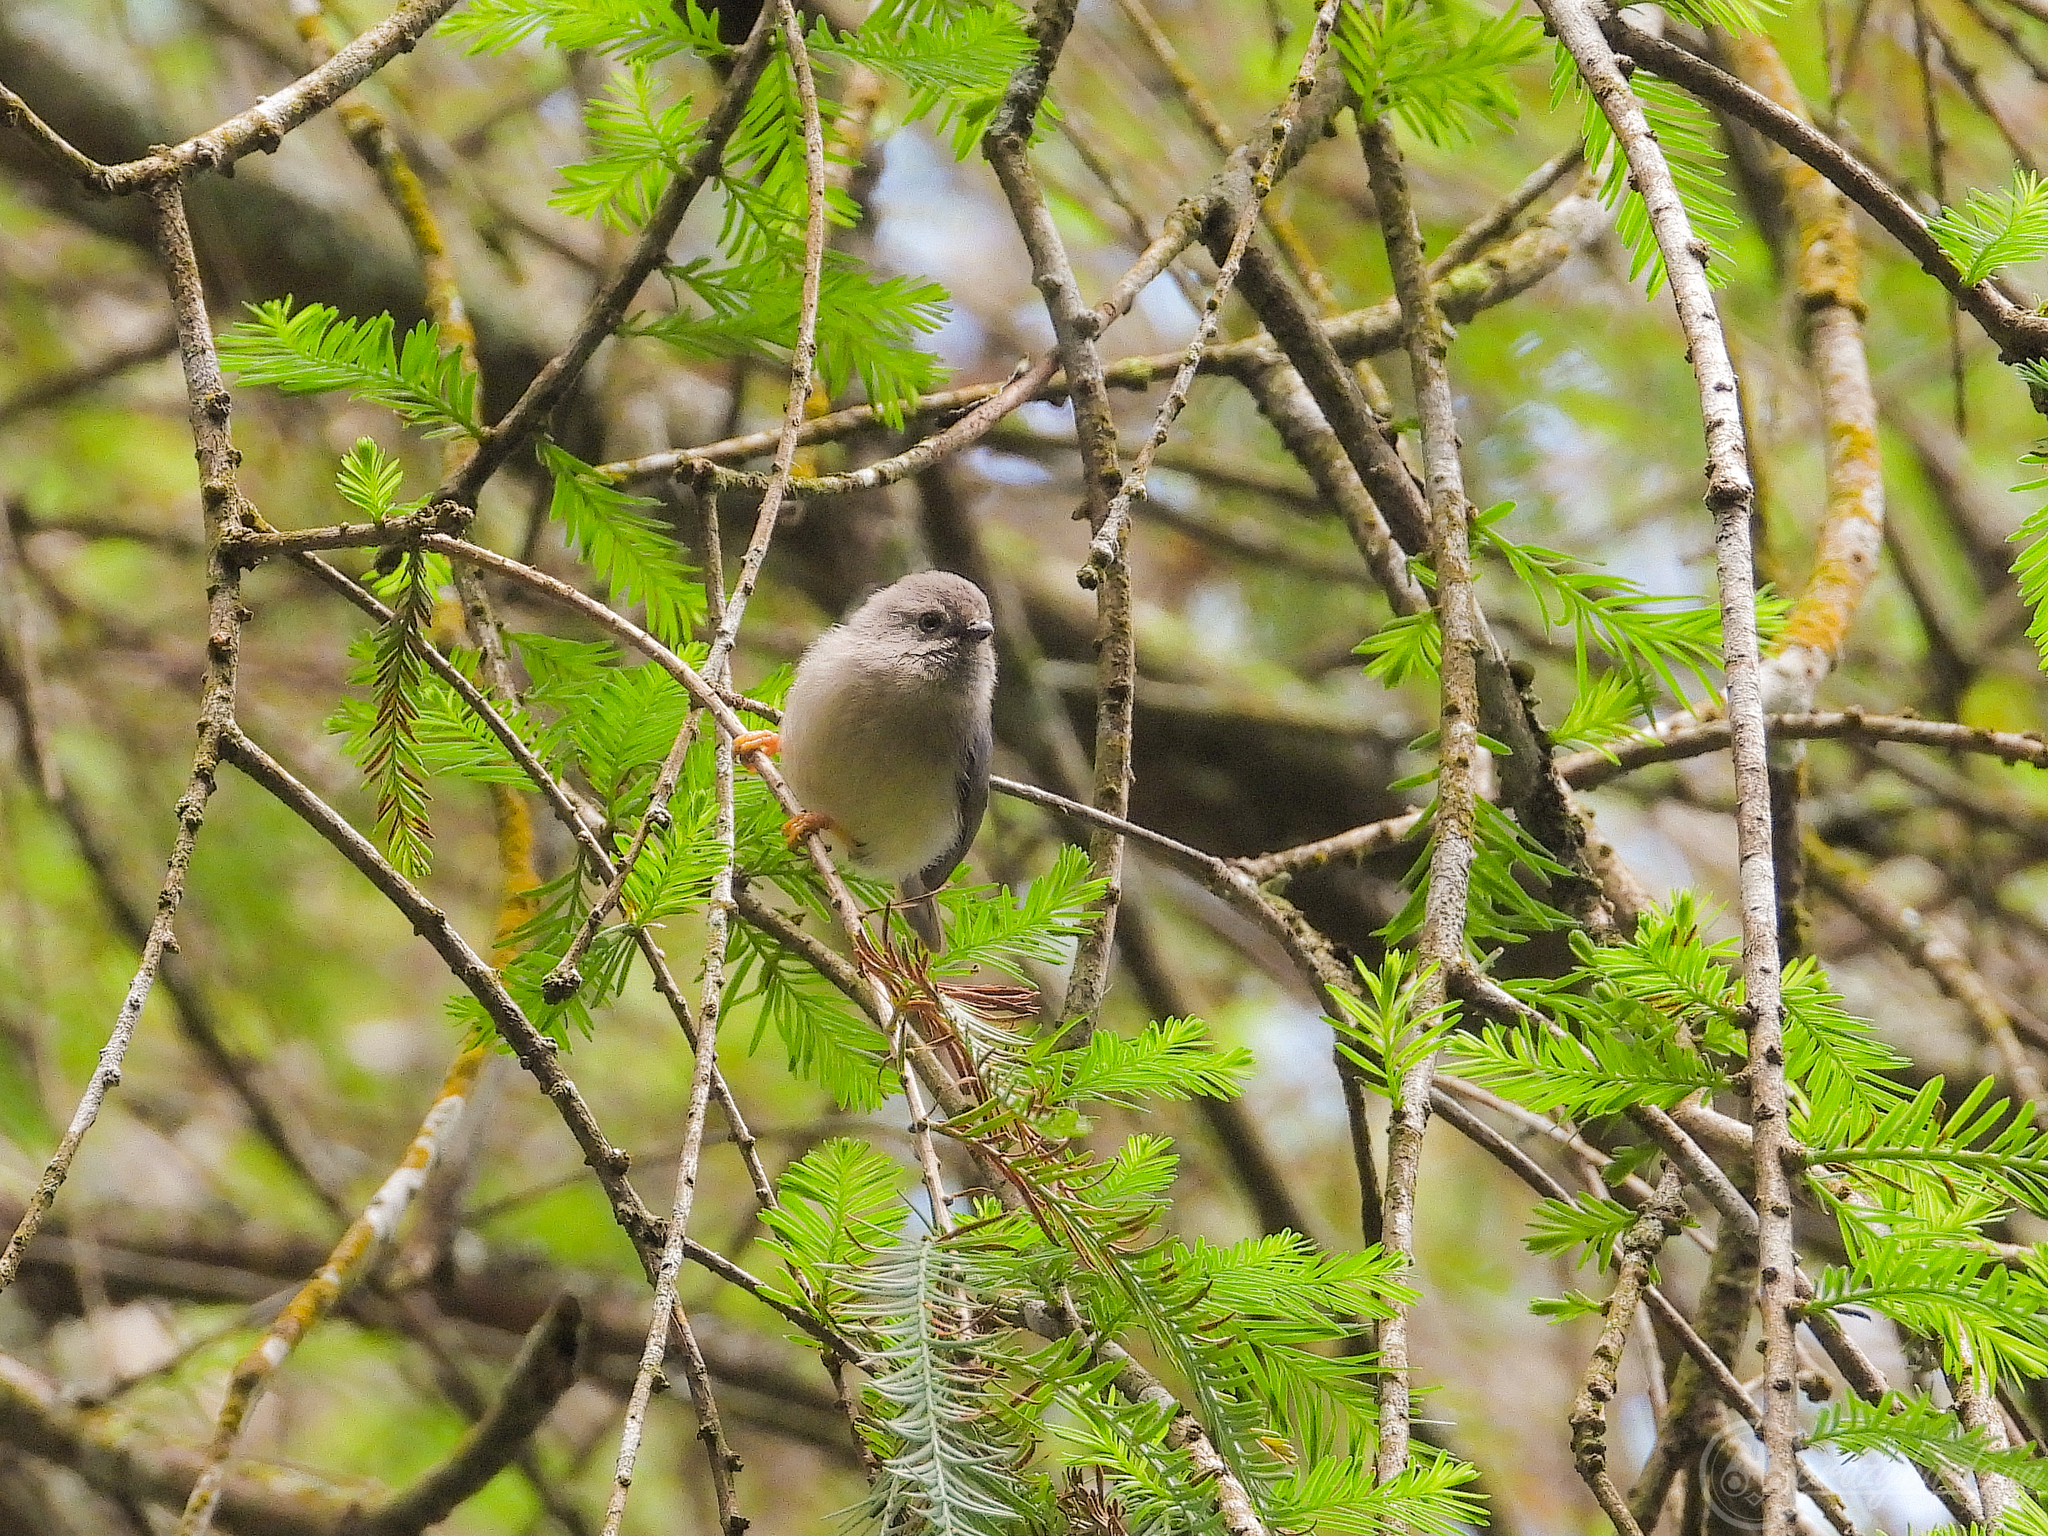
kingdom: Animalia
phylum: Chordata
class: Aves
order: Passeriformes
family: Aegithalidae
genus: Psaltria
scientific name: Psaltria exilis
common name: Pygmy bushtit
